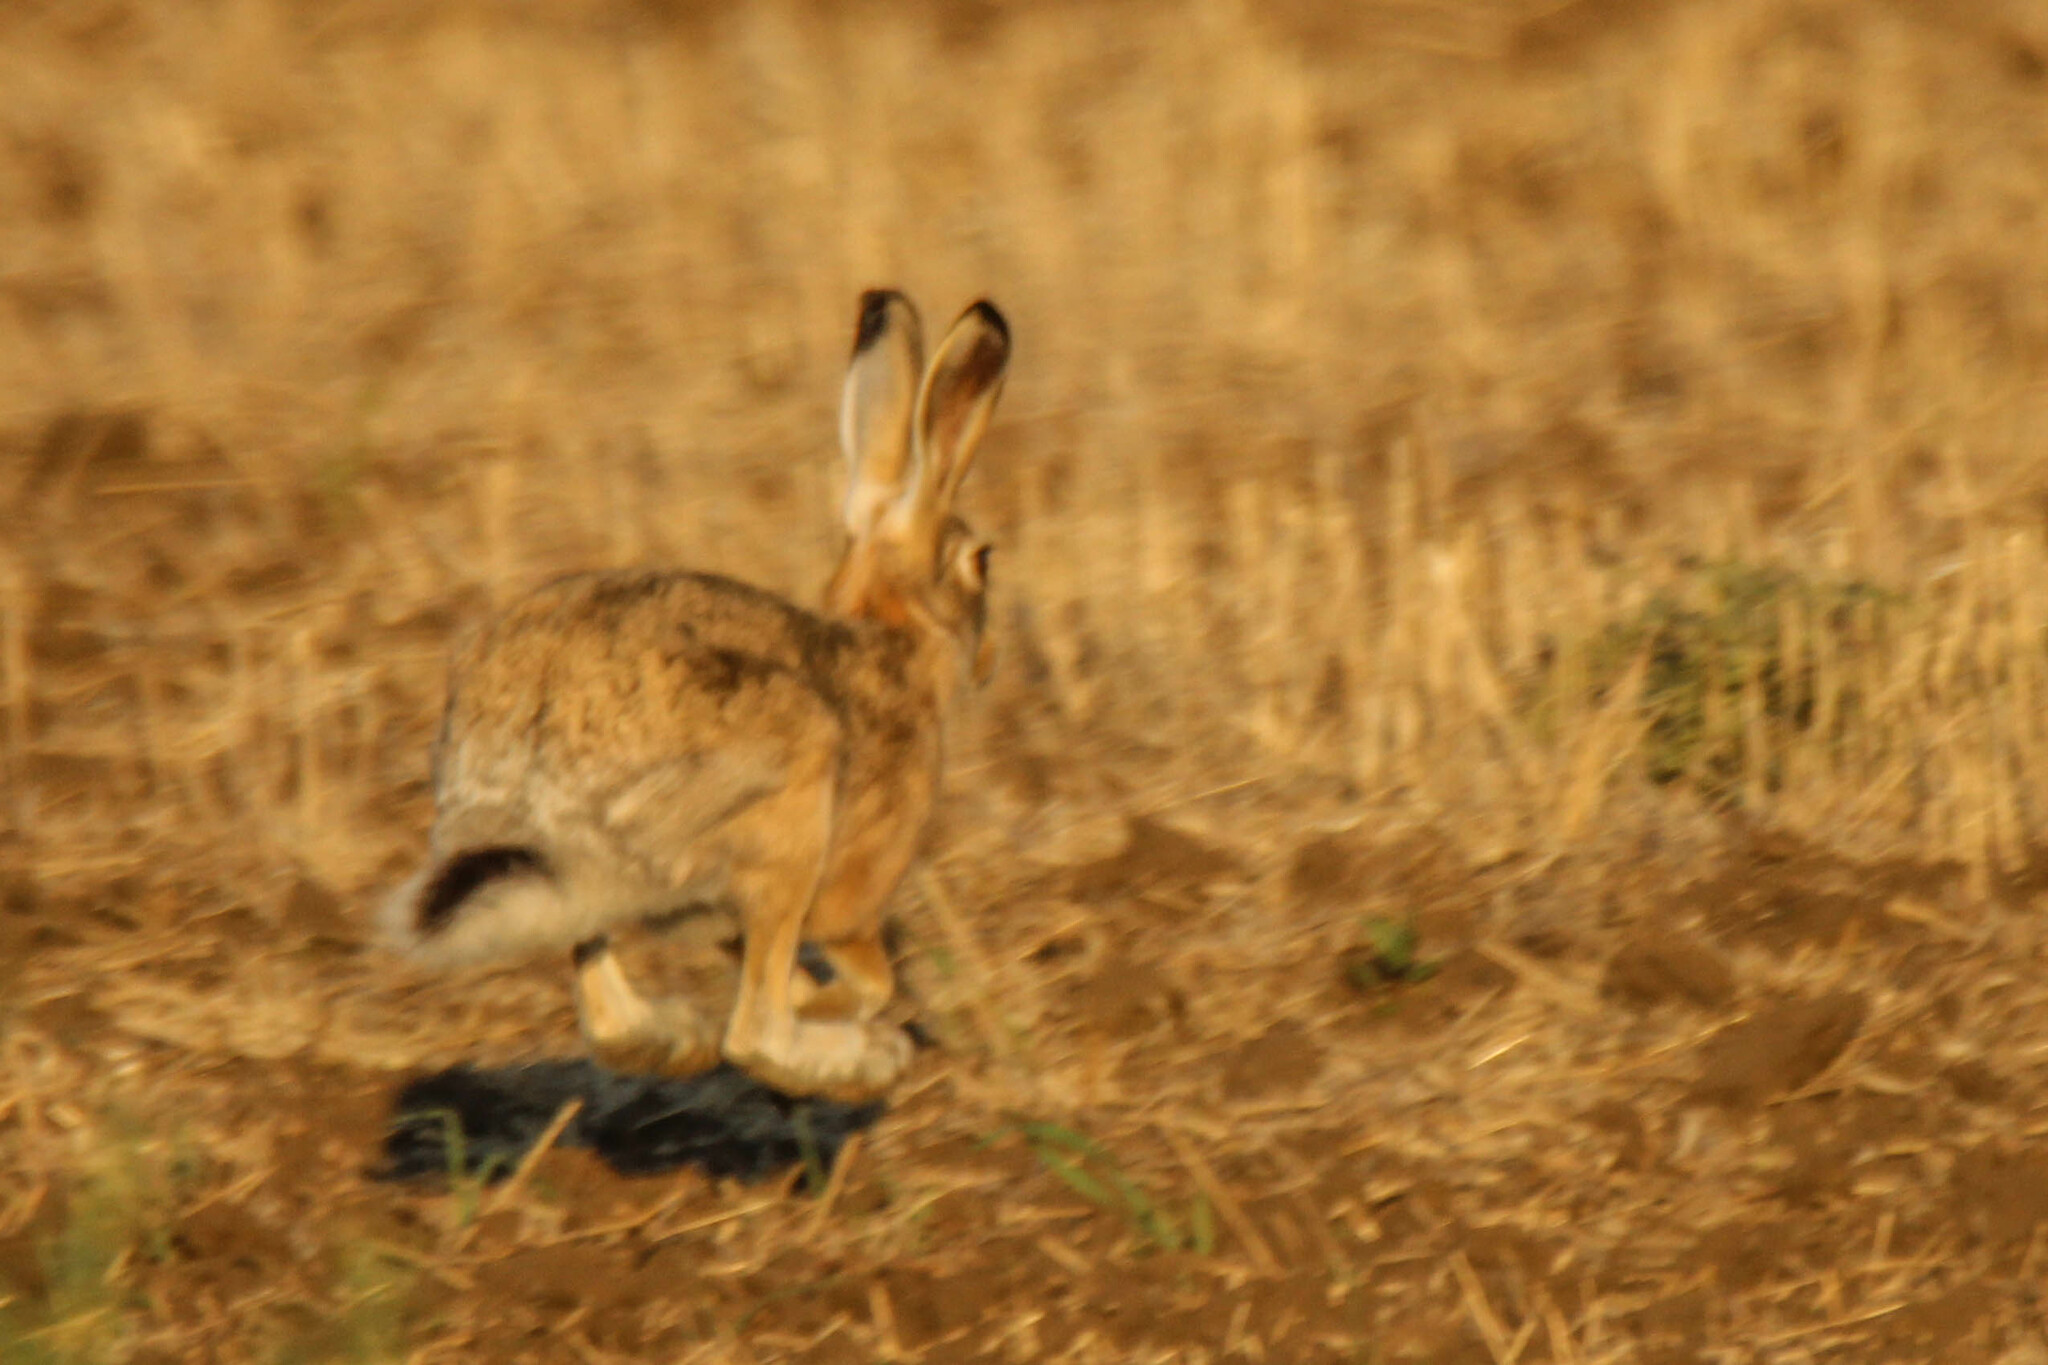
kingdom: Animalia
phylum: Chordata
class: Mammalia
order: Lagomorpha
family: Leporidae
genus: Lepus
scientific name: Lepus europaeus
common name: European hare
